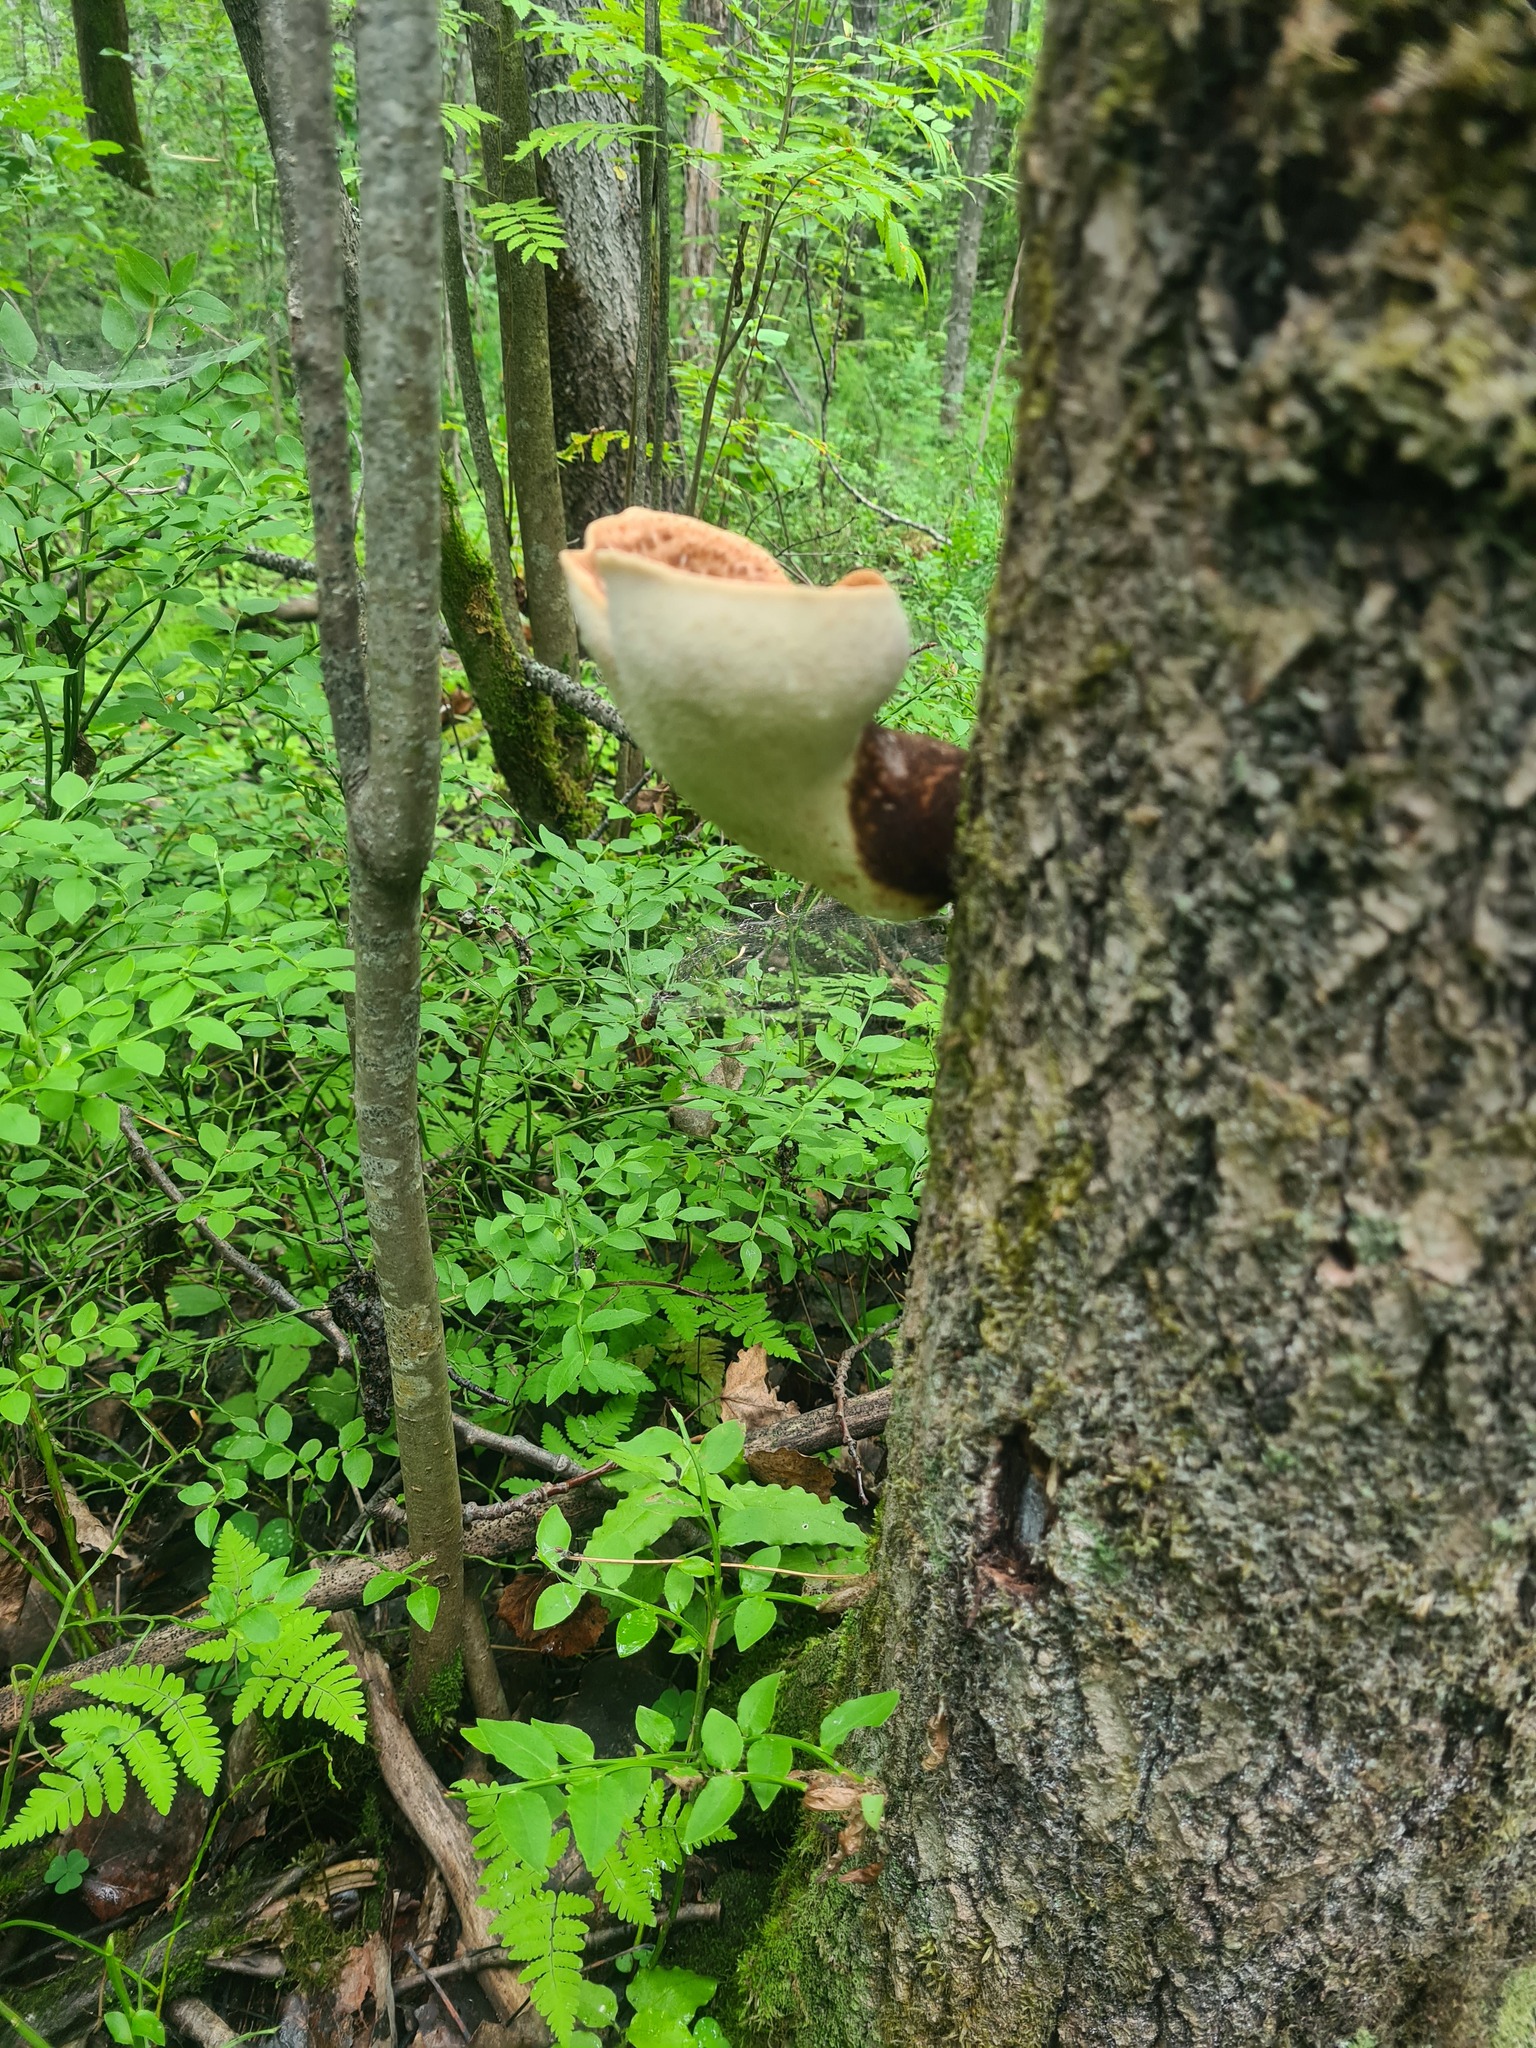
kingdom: Fungi
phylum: Basidiomycota
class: Agaricomycetes
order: Polyporales
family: Polyporaceae
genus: Cerioporus
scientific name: Cerioporus squamosus
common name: Dryad's saddle
